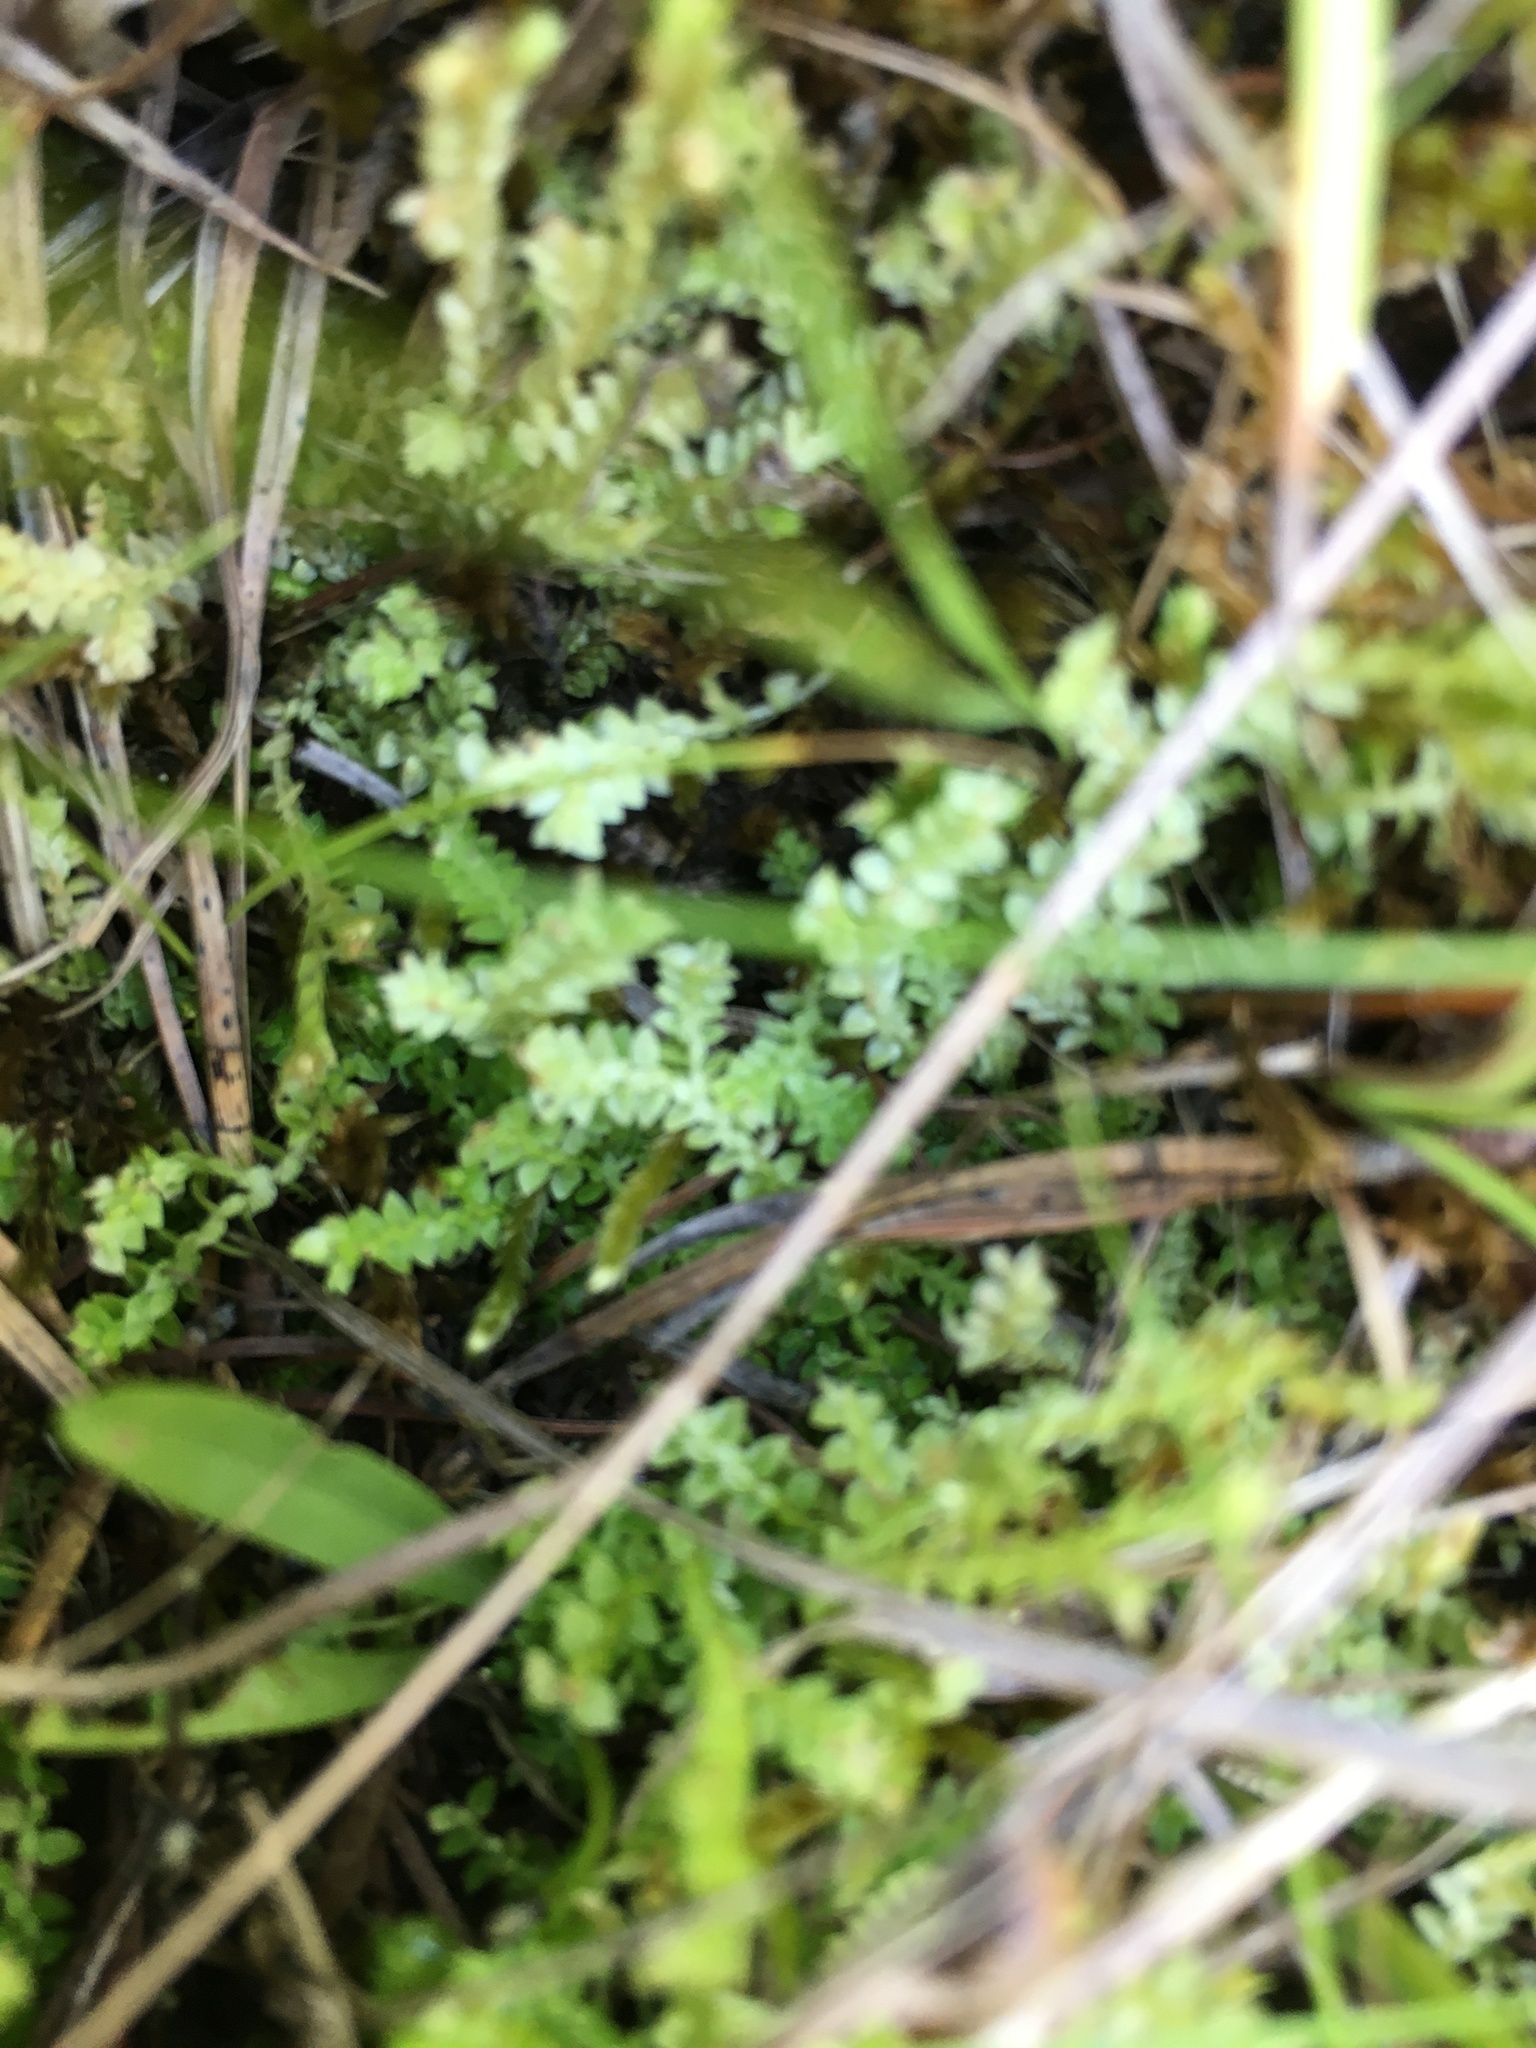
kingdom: Plantae
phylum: Tracheophyta
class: Lycopodiopsida
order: Selaginellales
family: Selaginellaceae
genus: Selaginella
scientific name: Selaginella apoda
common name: Creeping spikemoss
